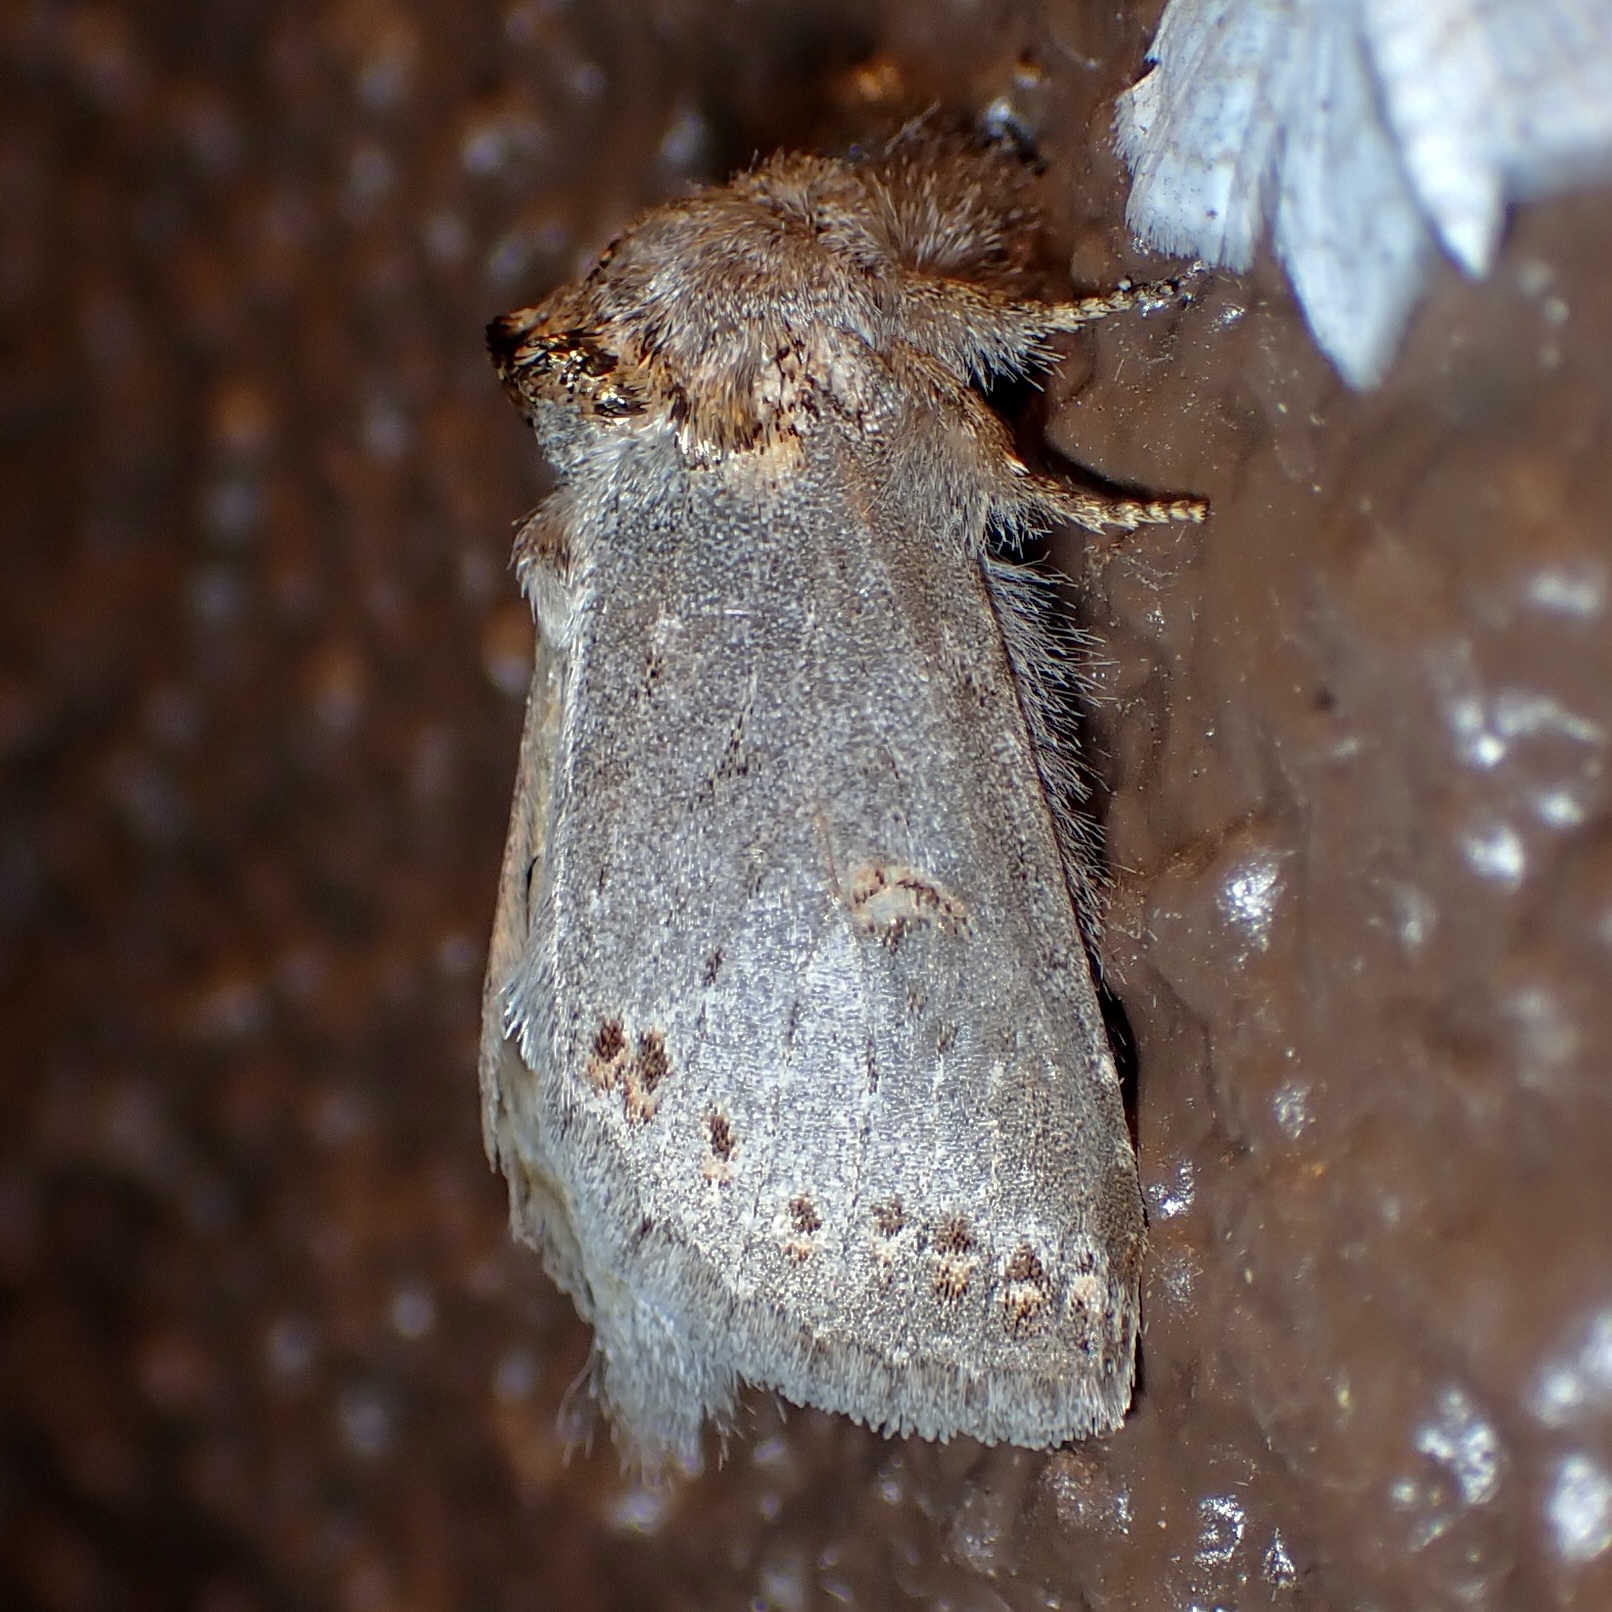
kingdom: Animalia
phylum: Arthropoda
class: Insecta
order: Lepidoptera
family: Notodontidae
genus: Theroa
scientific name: Theroa zethus
